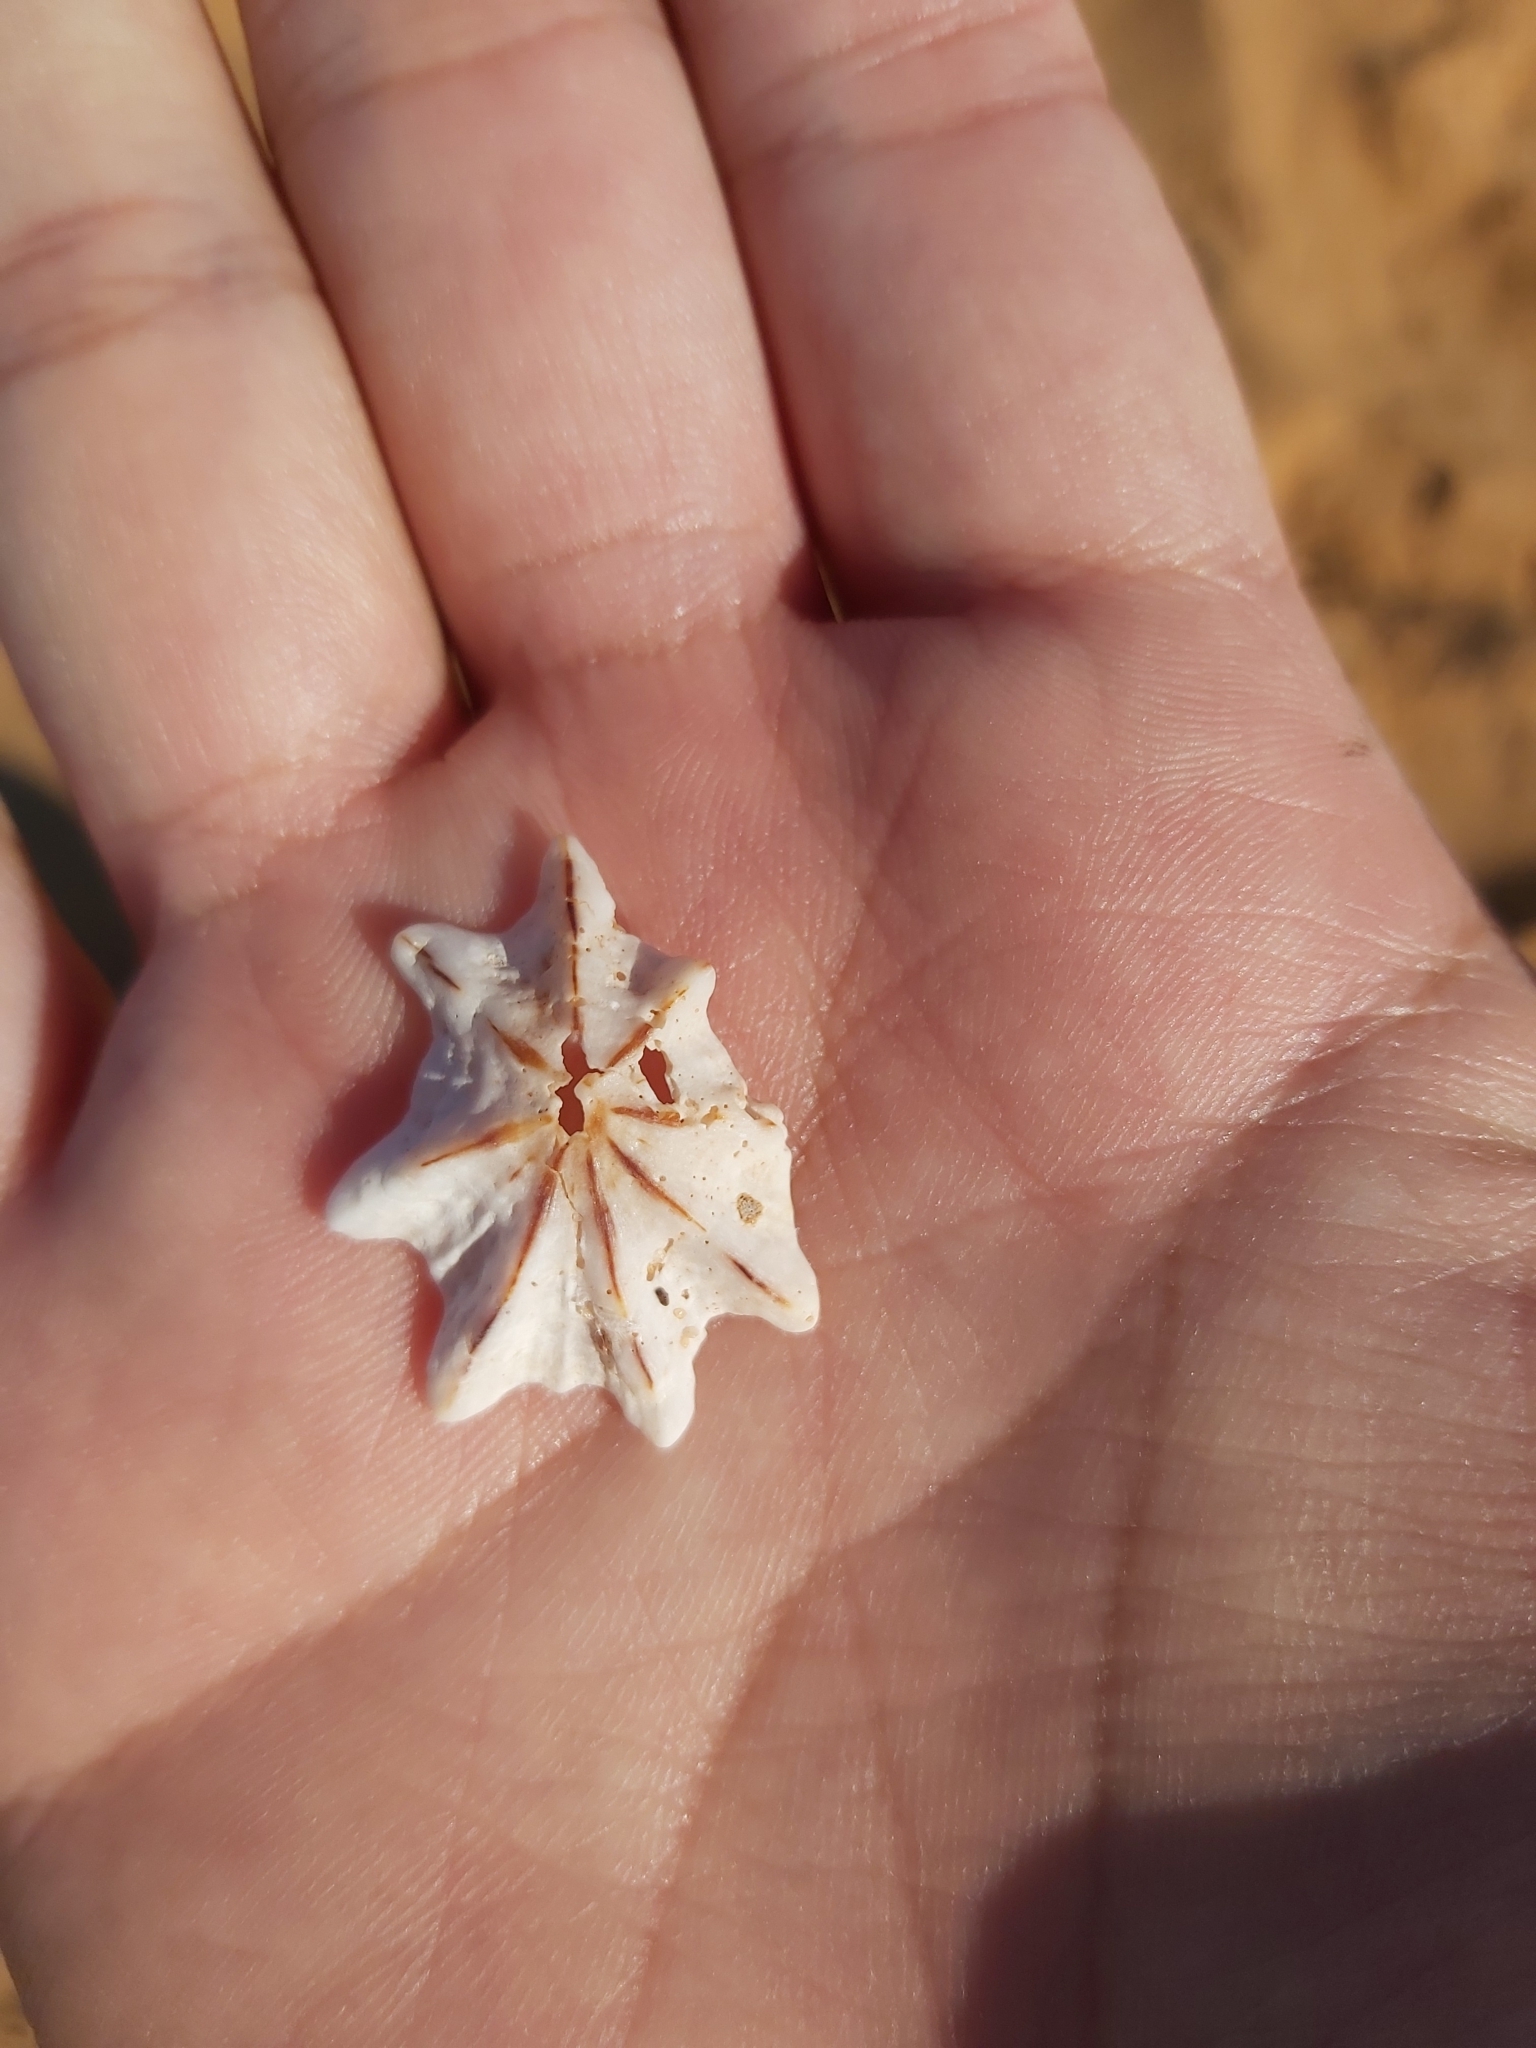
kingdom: Animalia
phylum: Mollusca
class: Gastropoda
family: Patellidae
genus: Scutellastra
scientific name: Scutellastra chapmani
